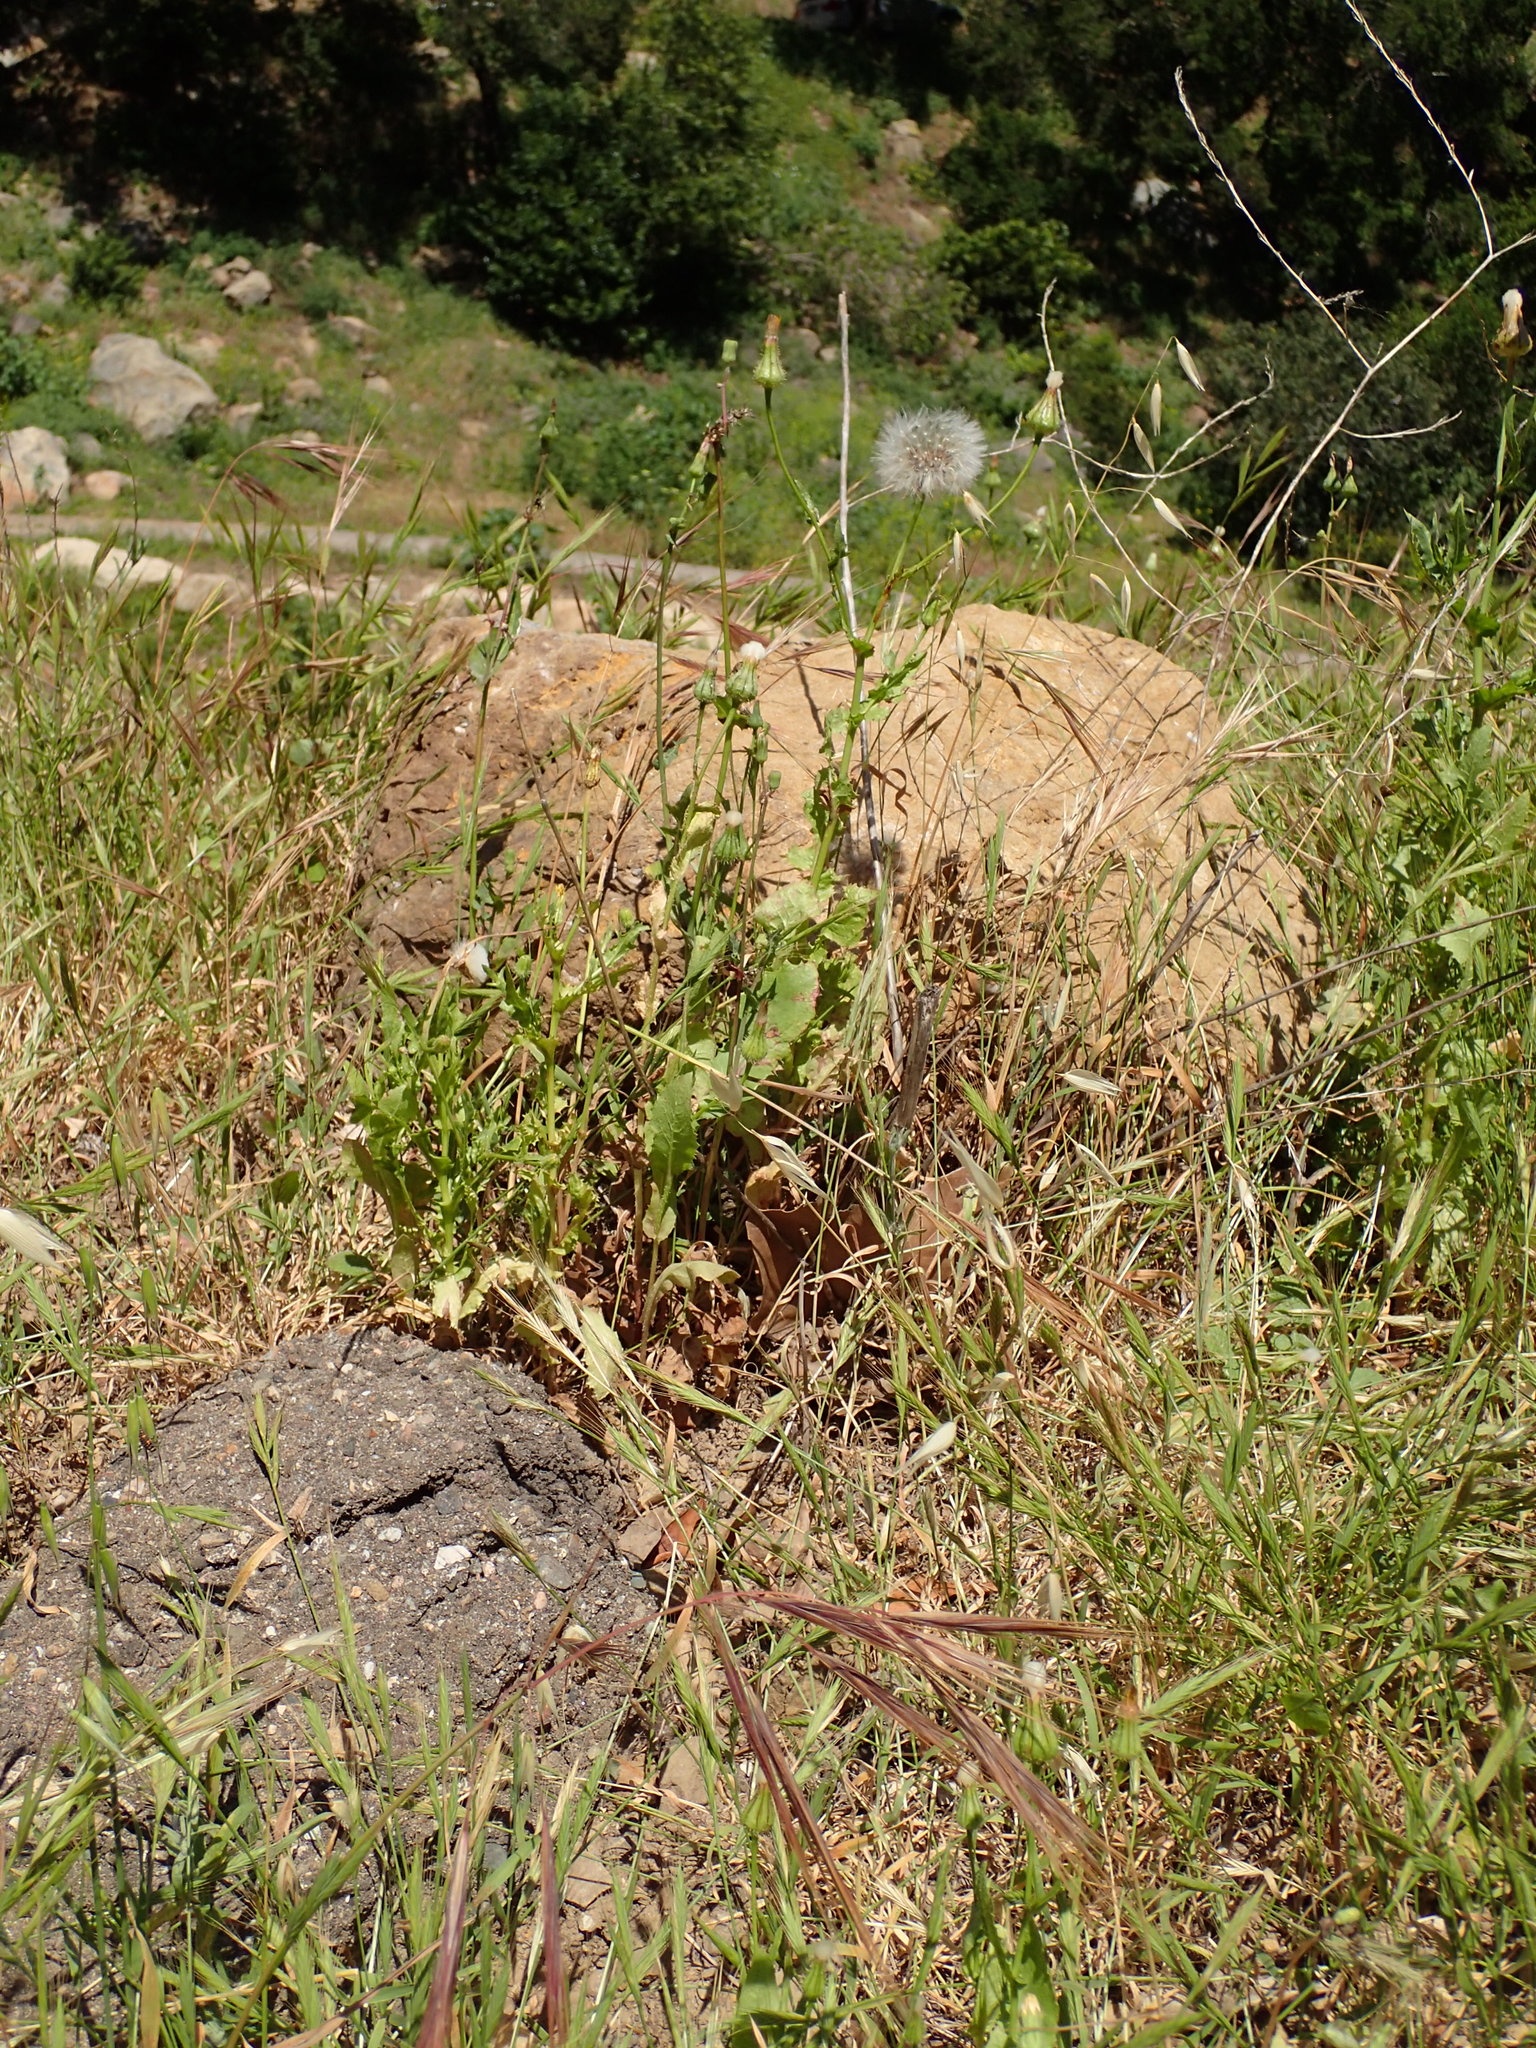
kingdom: Plantae
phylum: Tracheophyta
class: Magnoliopsida
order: Asterales
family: Asteraceae
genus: Urospermum
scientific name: Urospermum picroides
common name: False hawkbit
